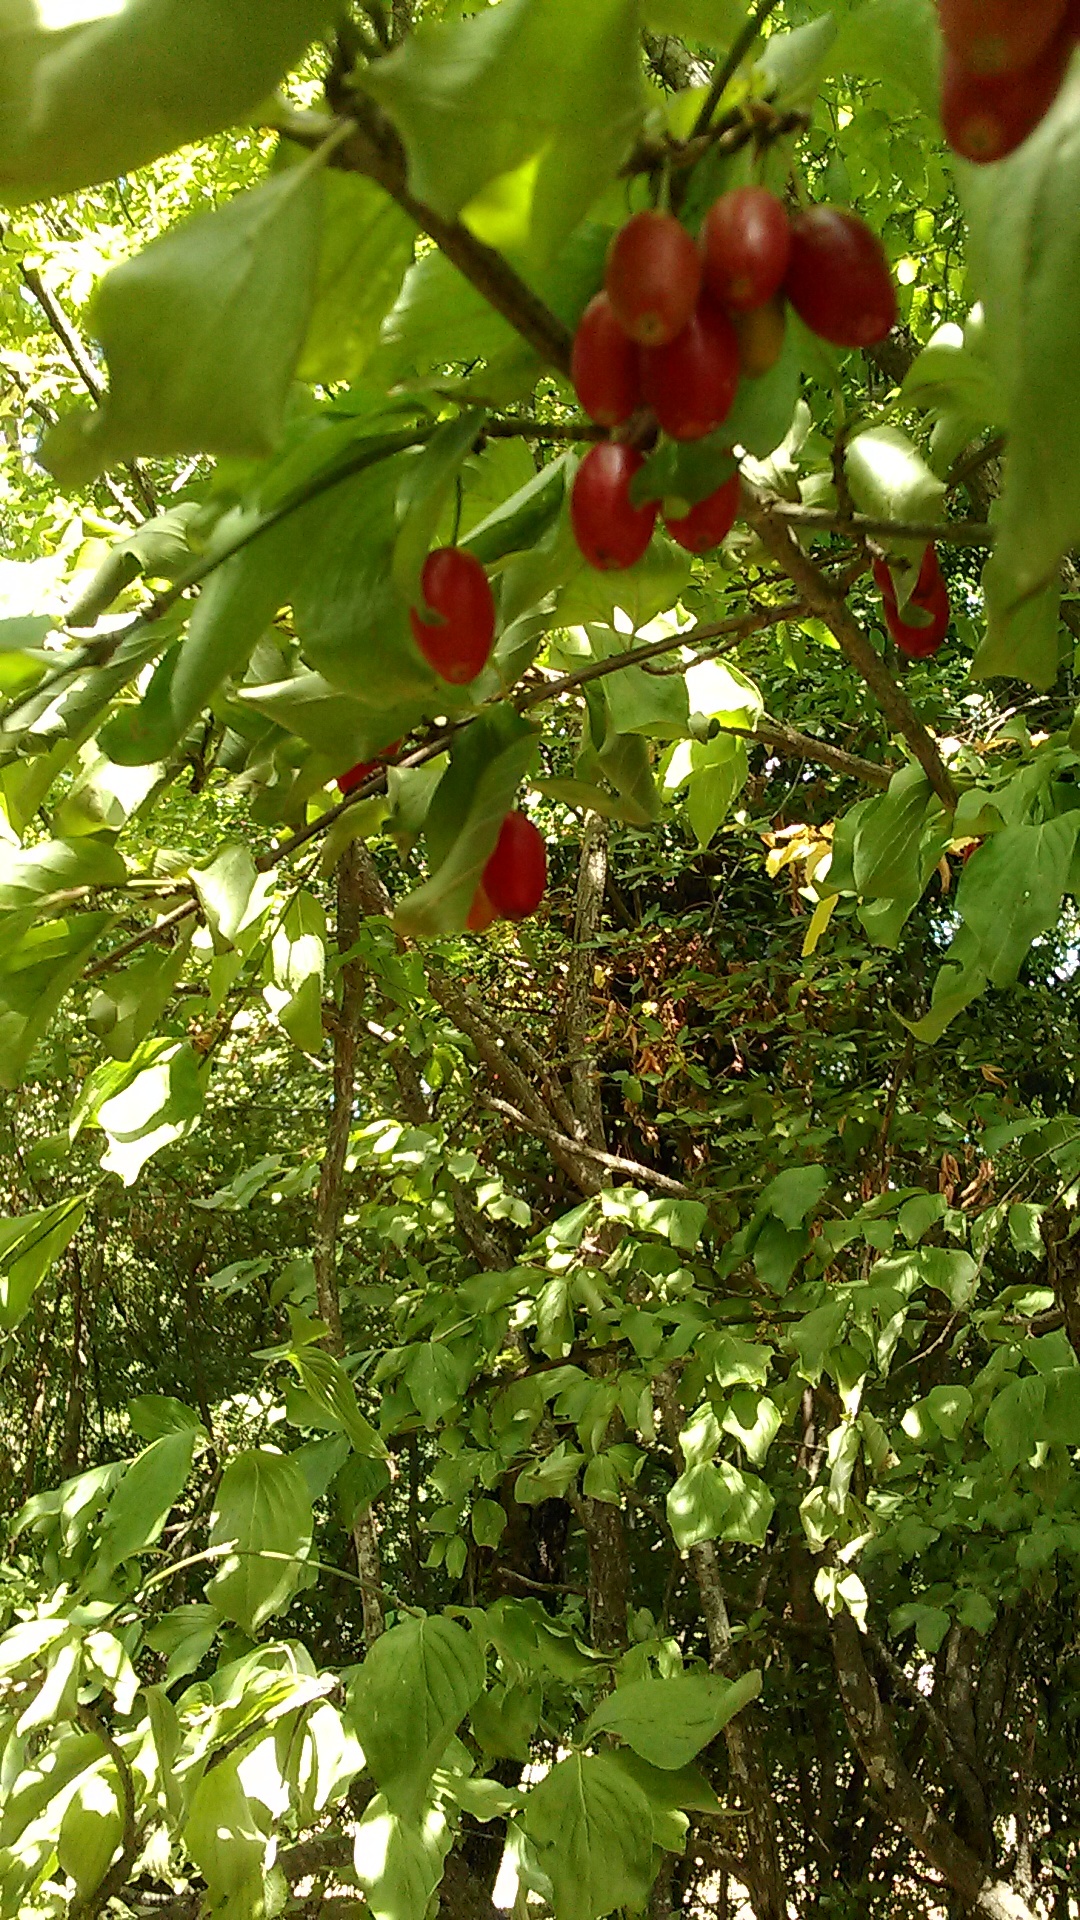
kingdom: Plantae
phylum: Tracheophyta
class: Magnoliopsida
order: Cornales
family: Cornaceae
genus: Cornus
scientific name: Cornus mas
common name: Cornelian-cherry
